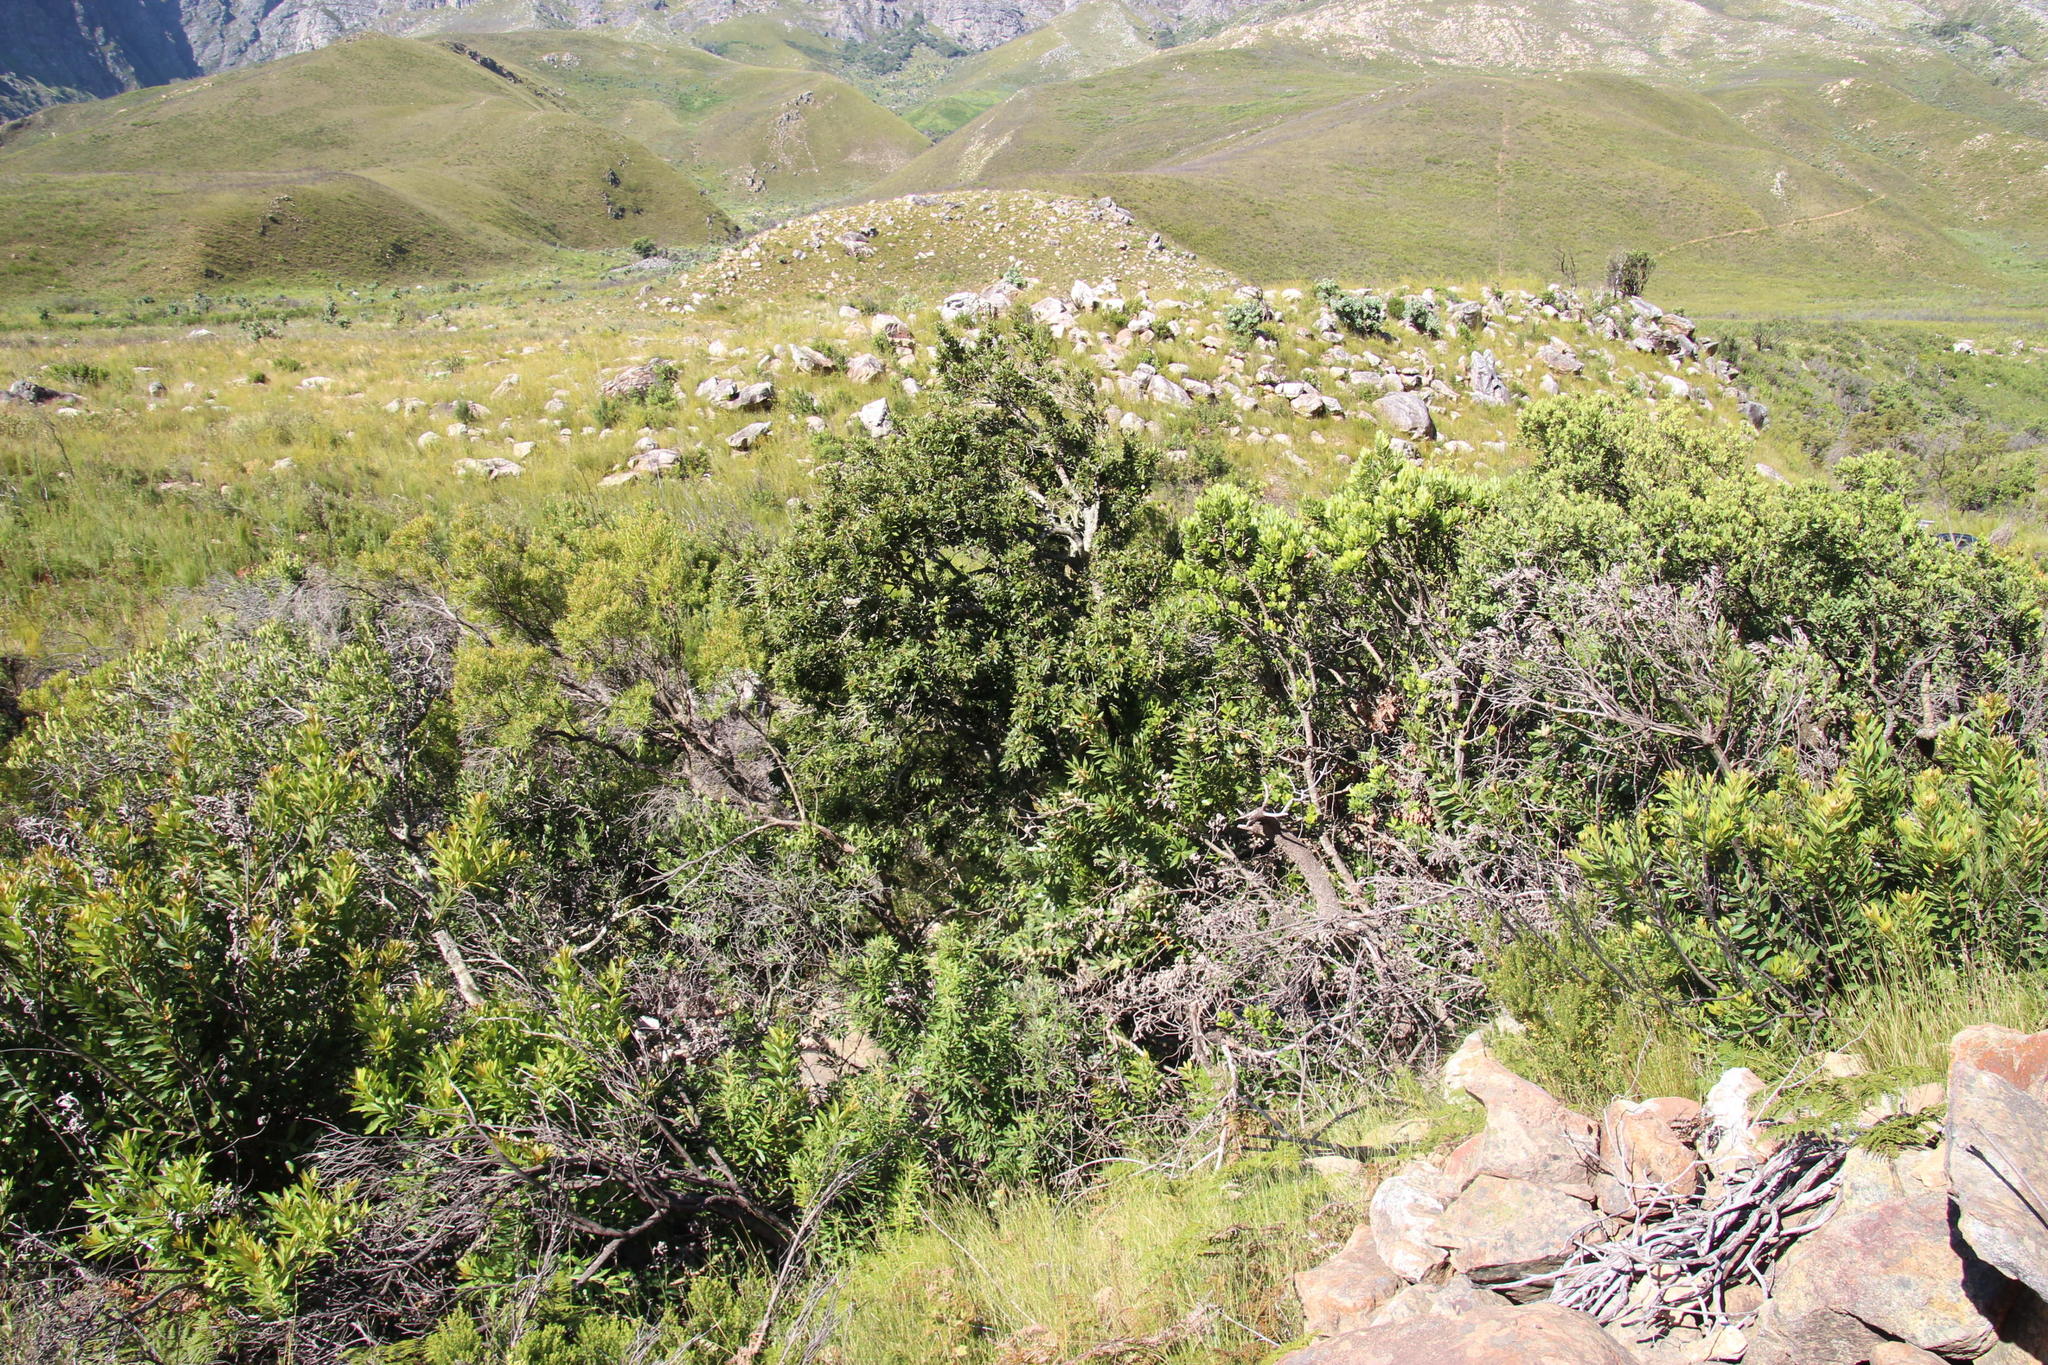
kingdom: Plantae
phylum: Tracheophyta
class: Magnoliopsida
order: Ericales
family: Primulaceae
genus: Myrsine
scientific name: Myrsine melanophloeos
